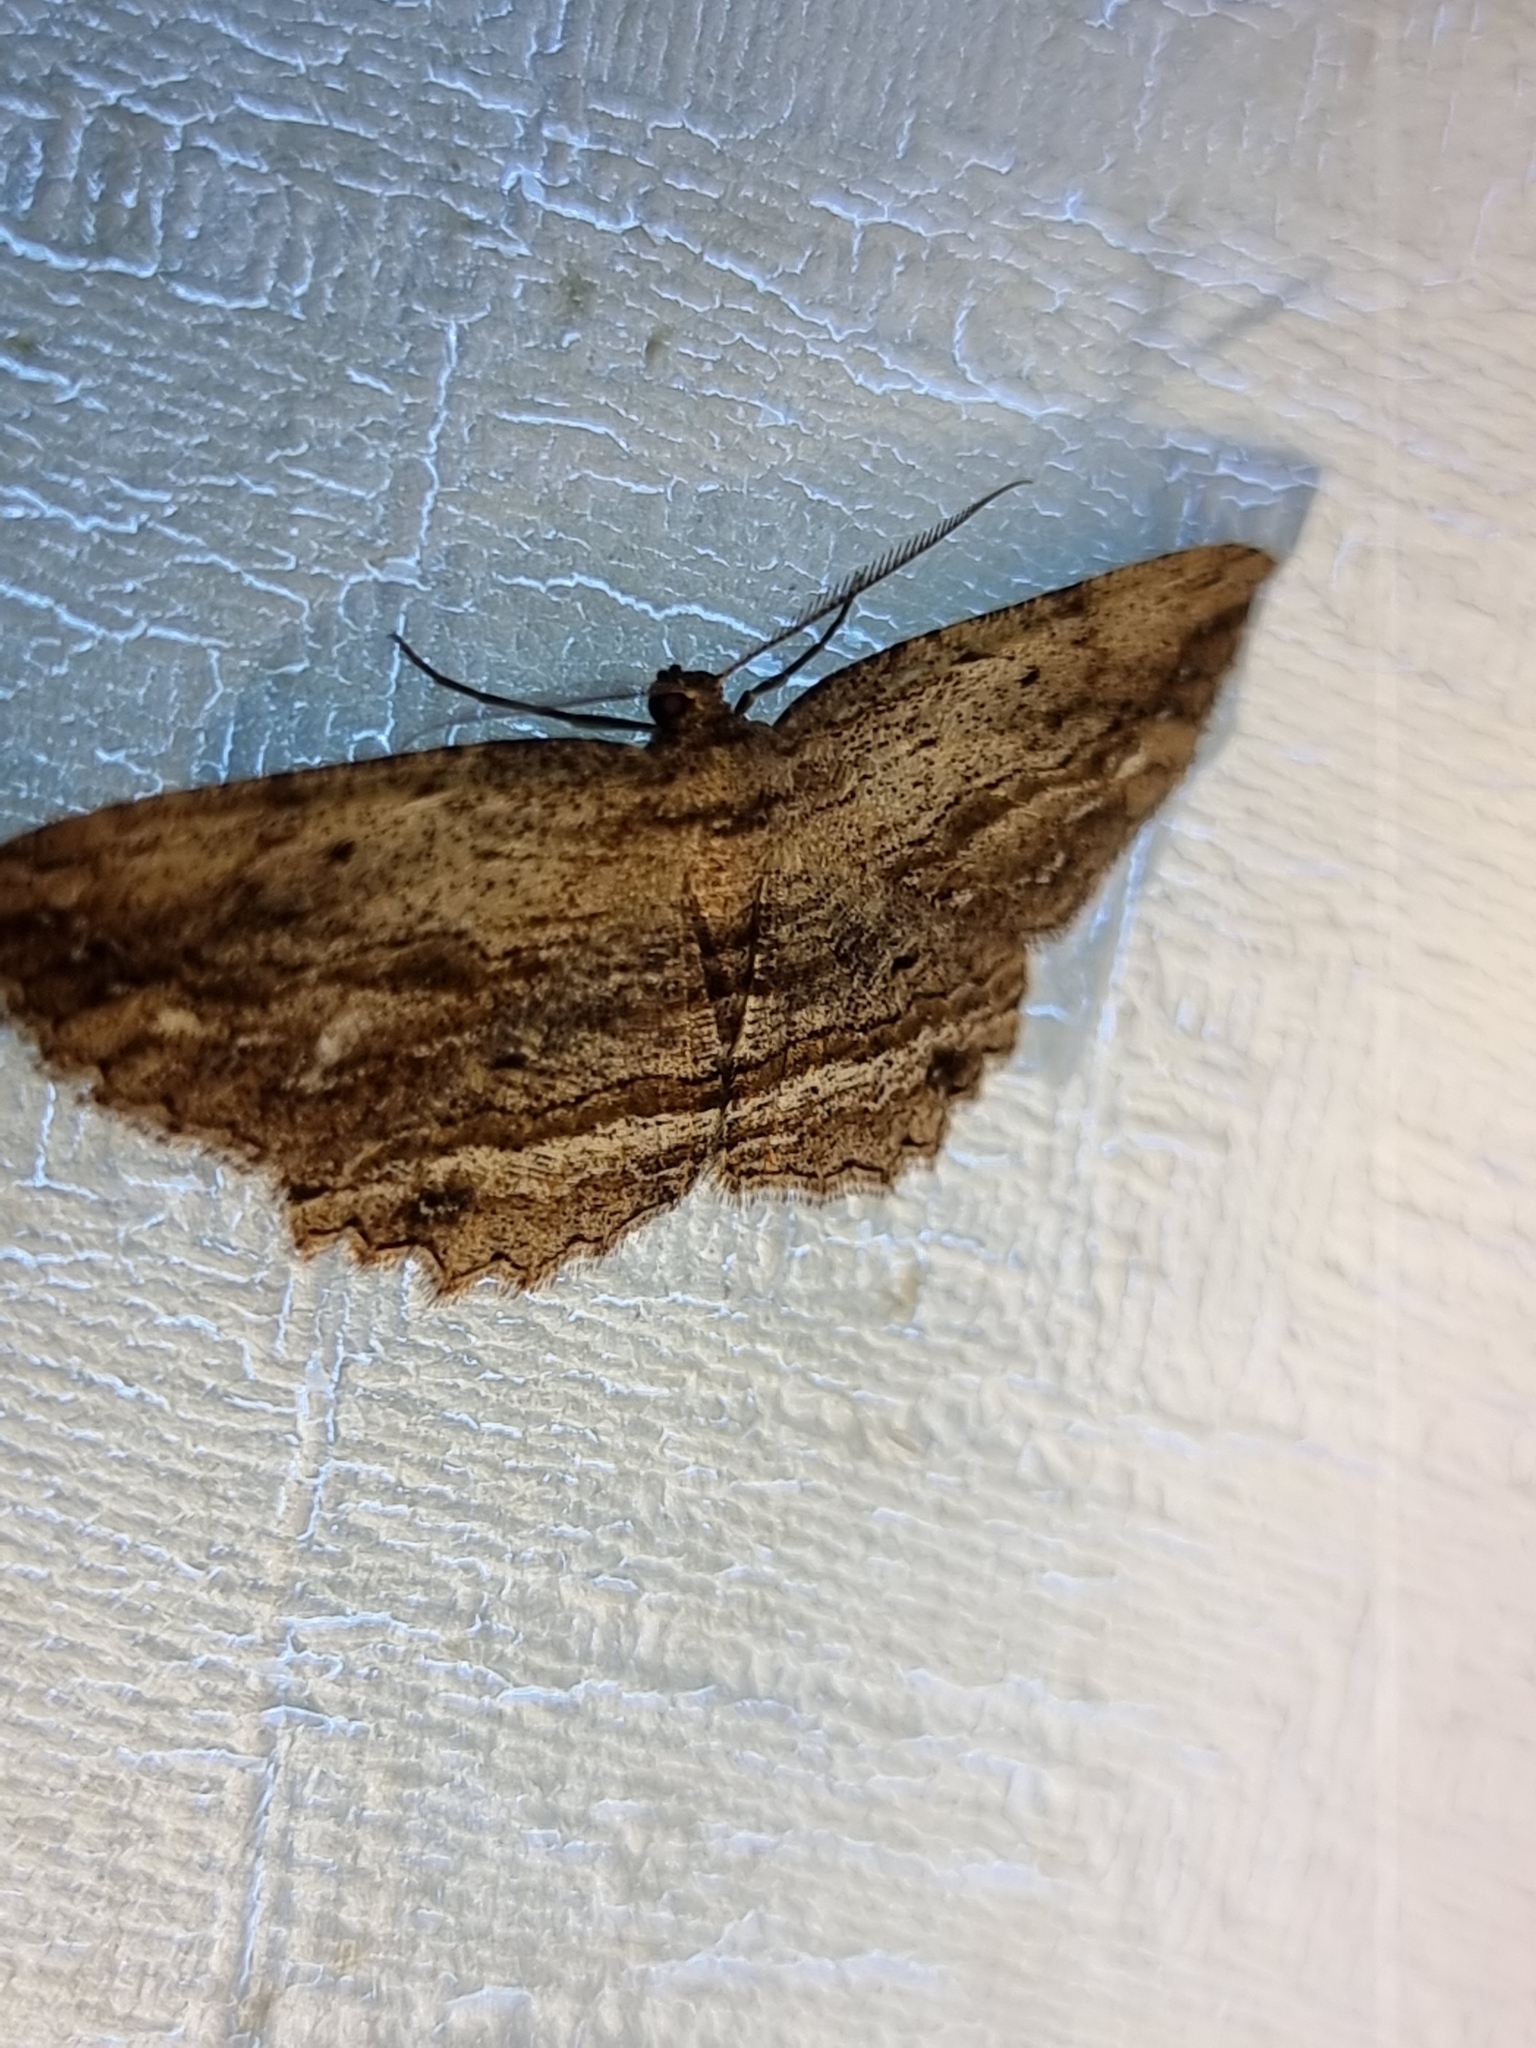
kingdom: Animalia
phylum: Arthropoda
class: Insecta
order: Lepidoptera
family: Geometridae
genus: Hypomecis
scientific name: Hypomecis agoraea
